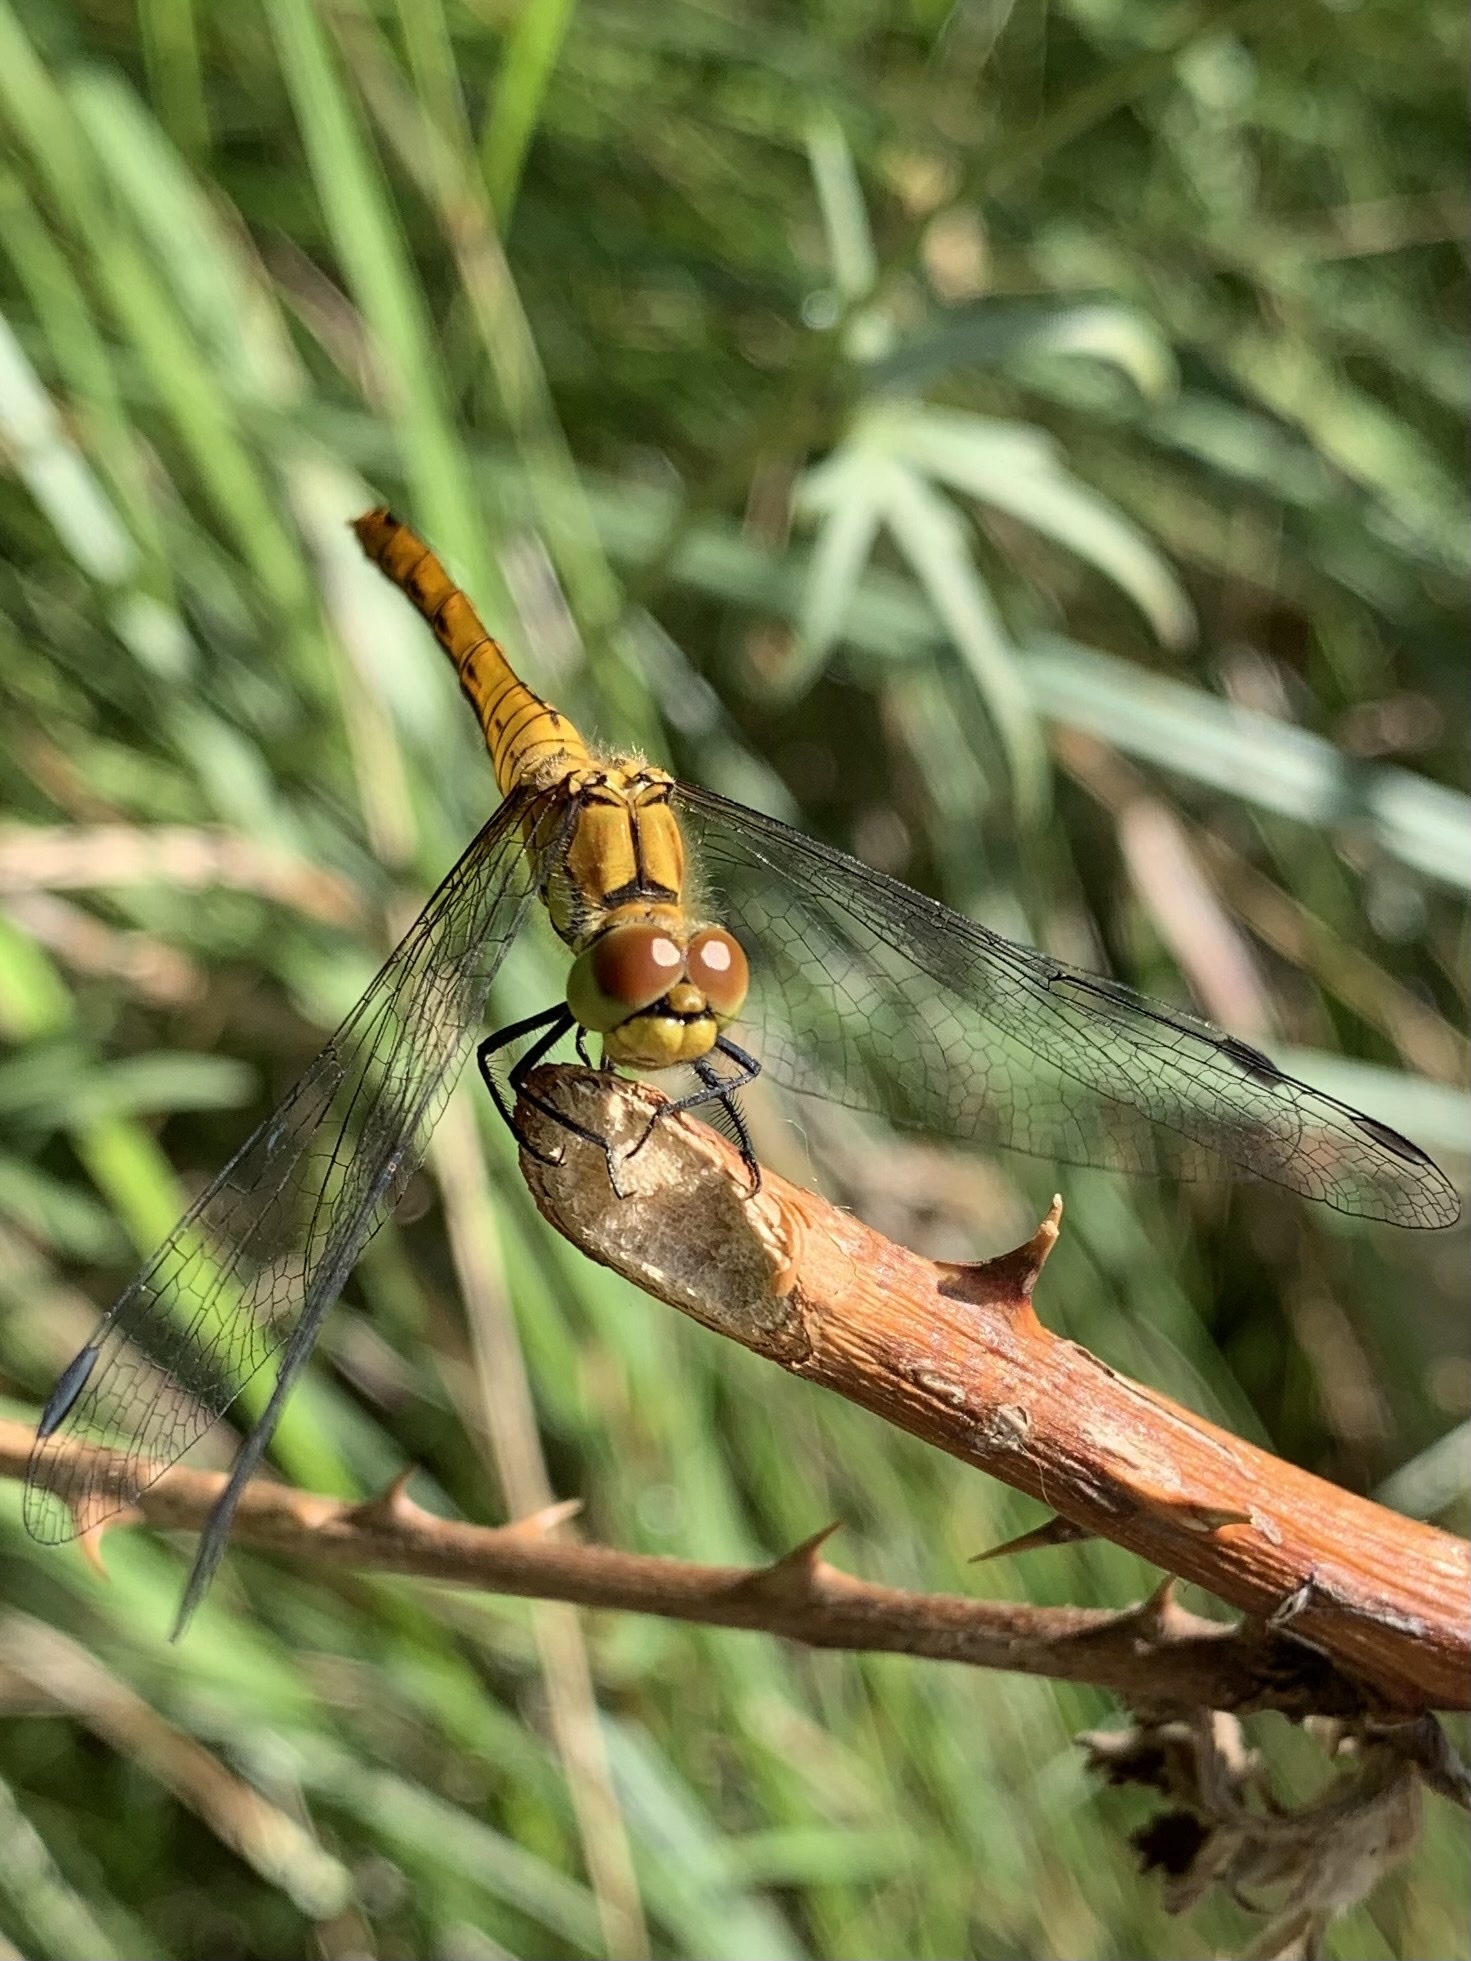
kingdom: Animalia
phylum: Arthropoda
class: Insecta
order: Odonata
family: Libellulidae
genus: Sympetrum
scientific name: Sympetrum sanguineum
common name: Ruddy darter
